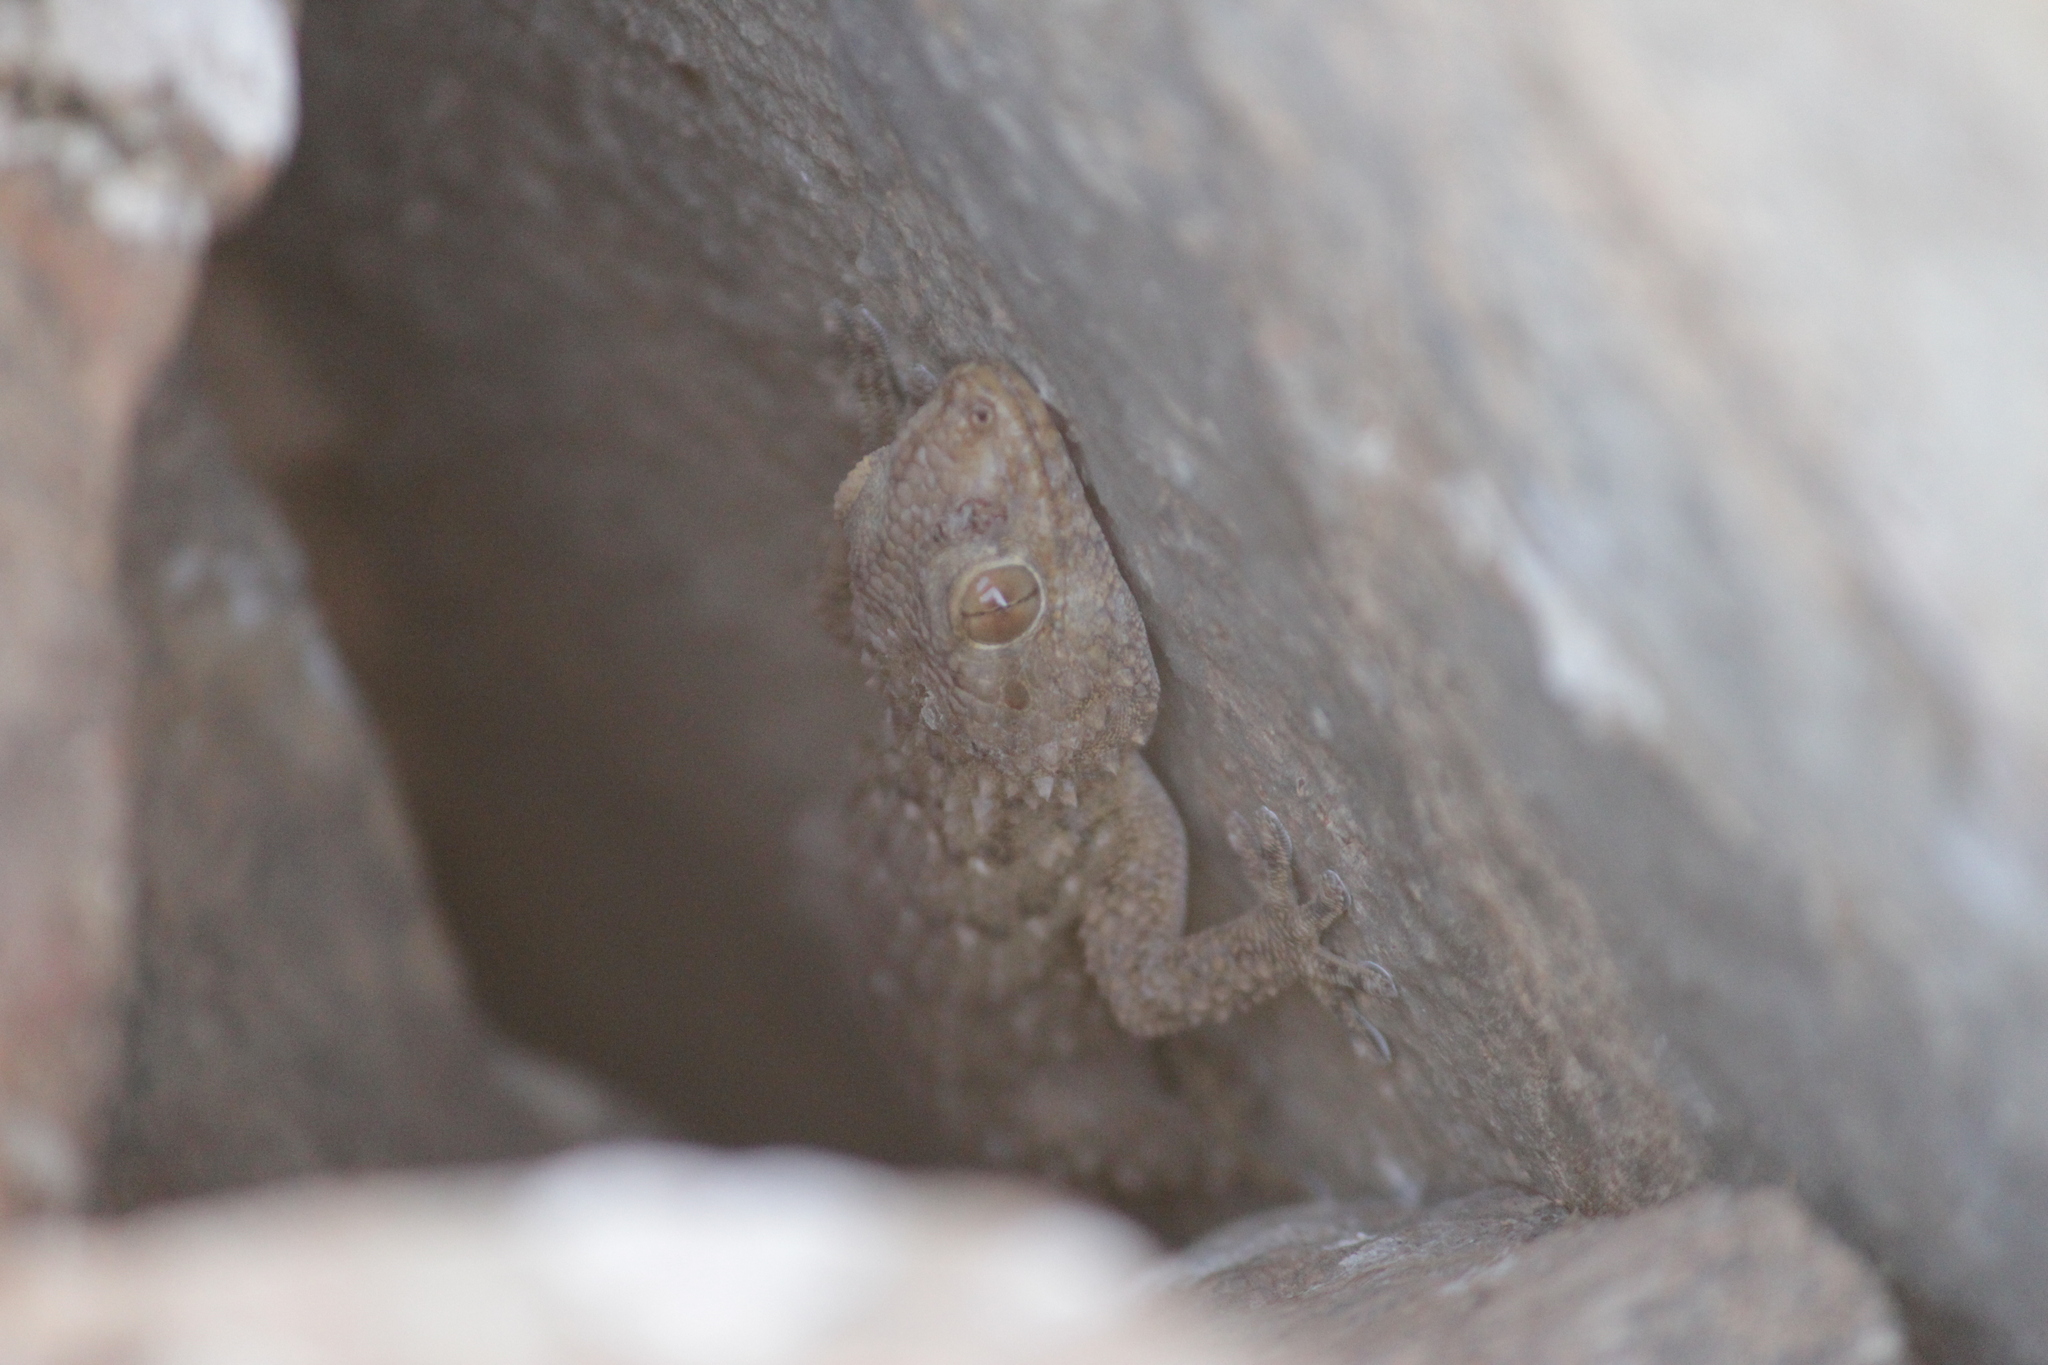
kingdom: Animalia
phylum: Chordata
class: Squamata
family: Gekkonidae
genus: Chondrodactylus
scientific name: Chondrodactylus bibronii
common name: Bibron's gecko
